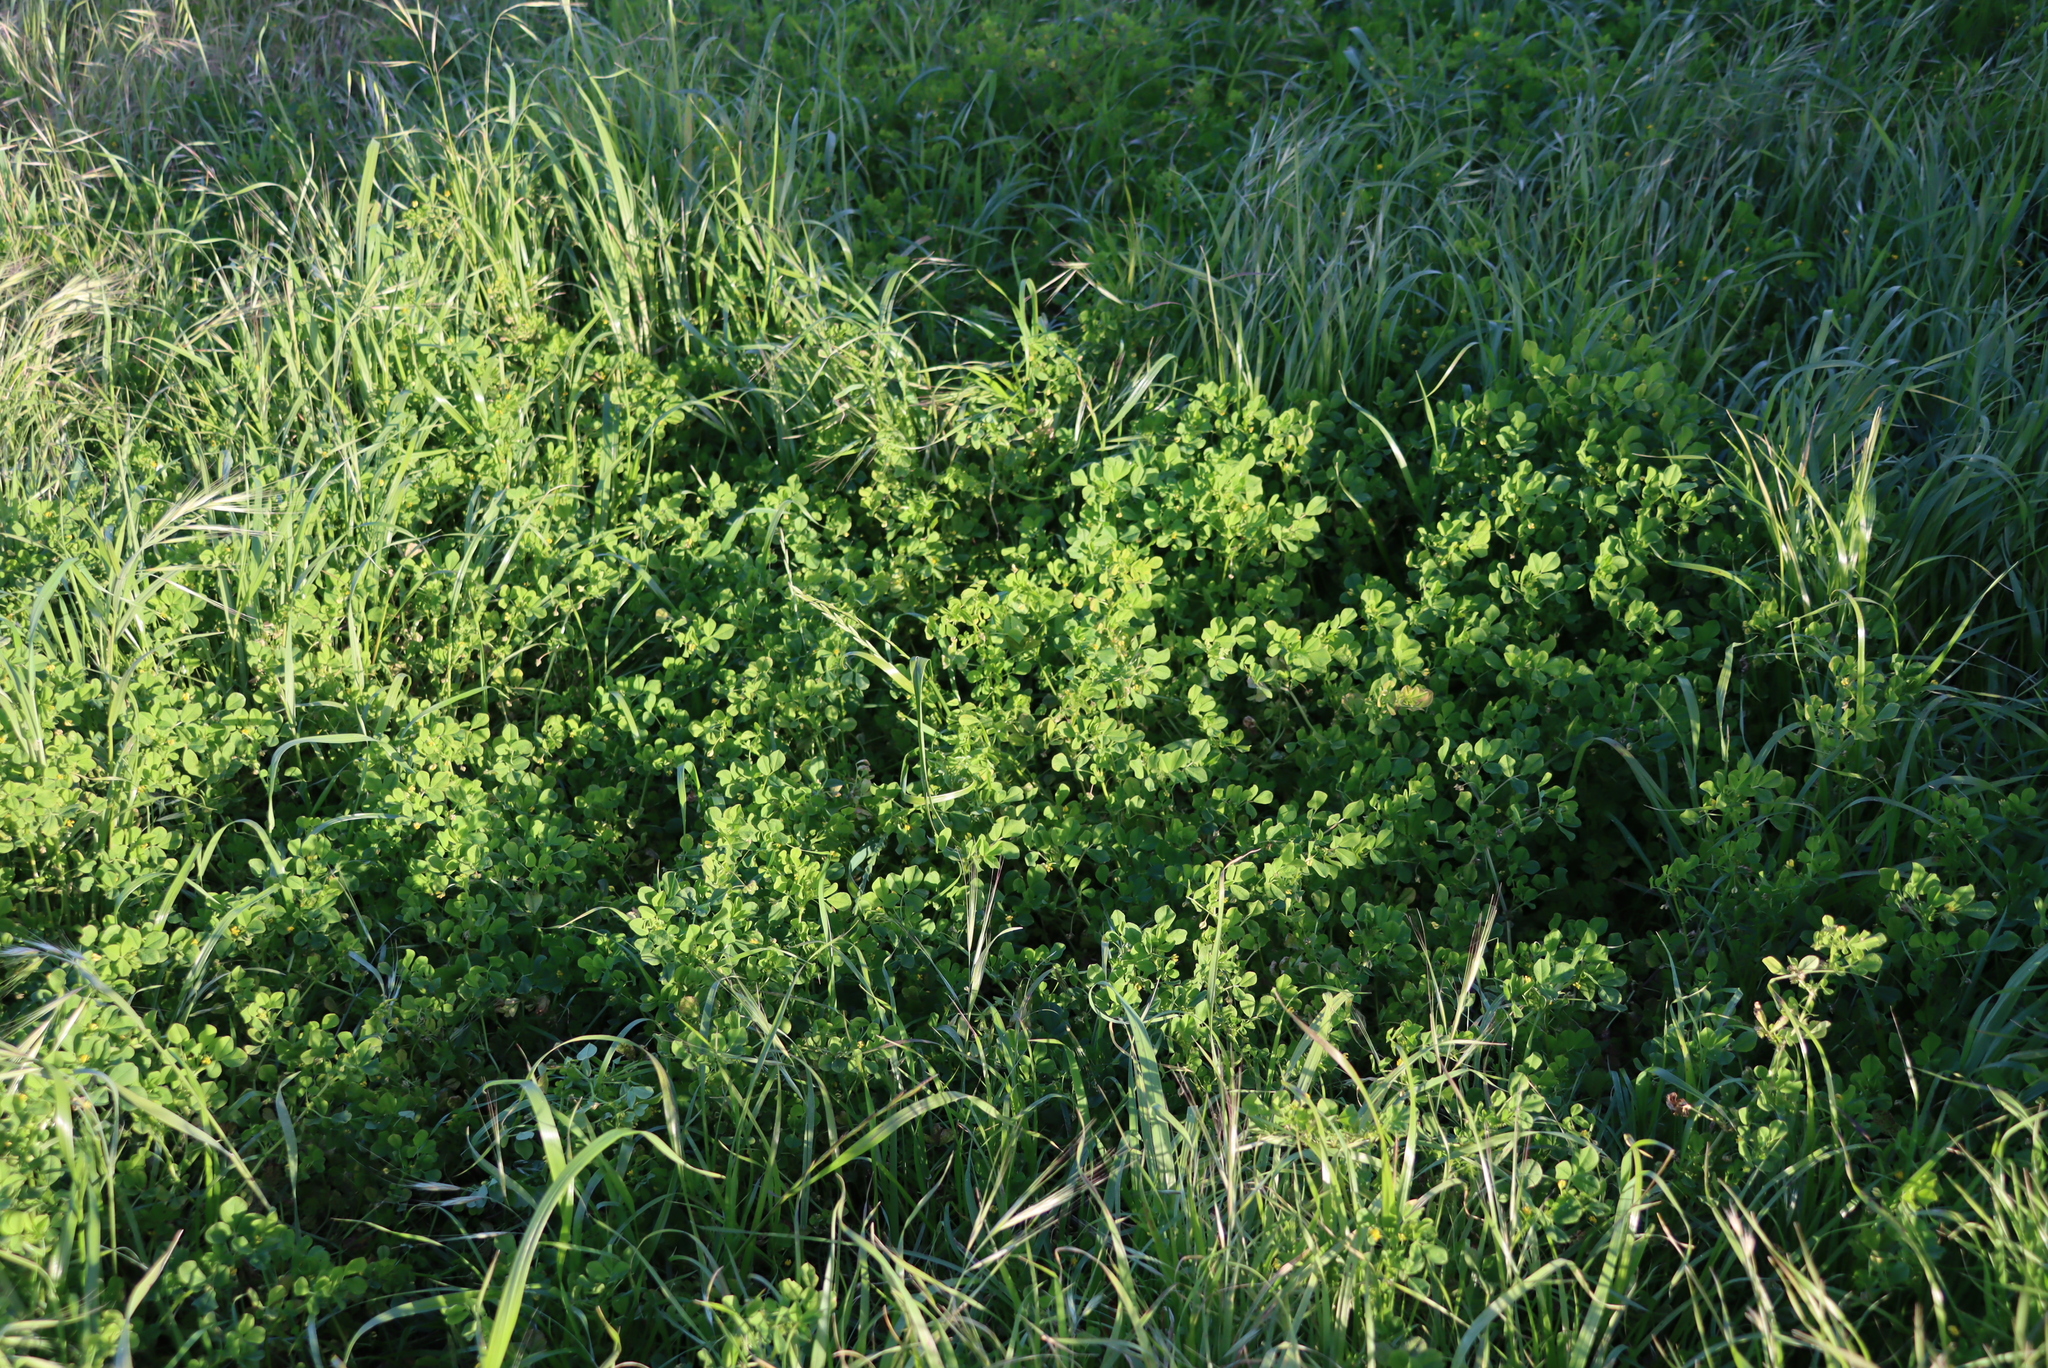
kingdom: Plantae
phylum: Tracheophyta
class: Magnoliopsida
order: Fabales
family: Fabaceae
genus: Medicago
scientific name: Medicago polymorpha
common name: Burclover
